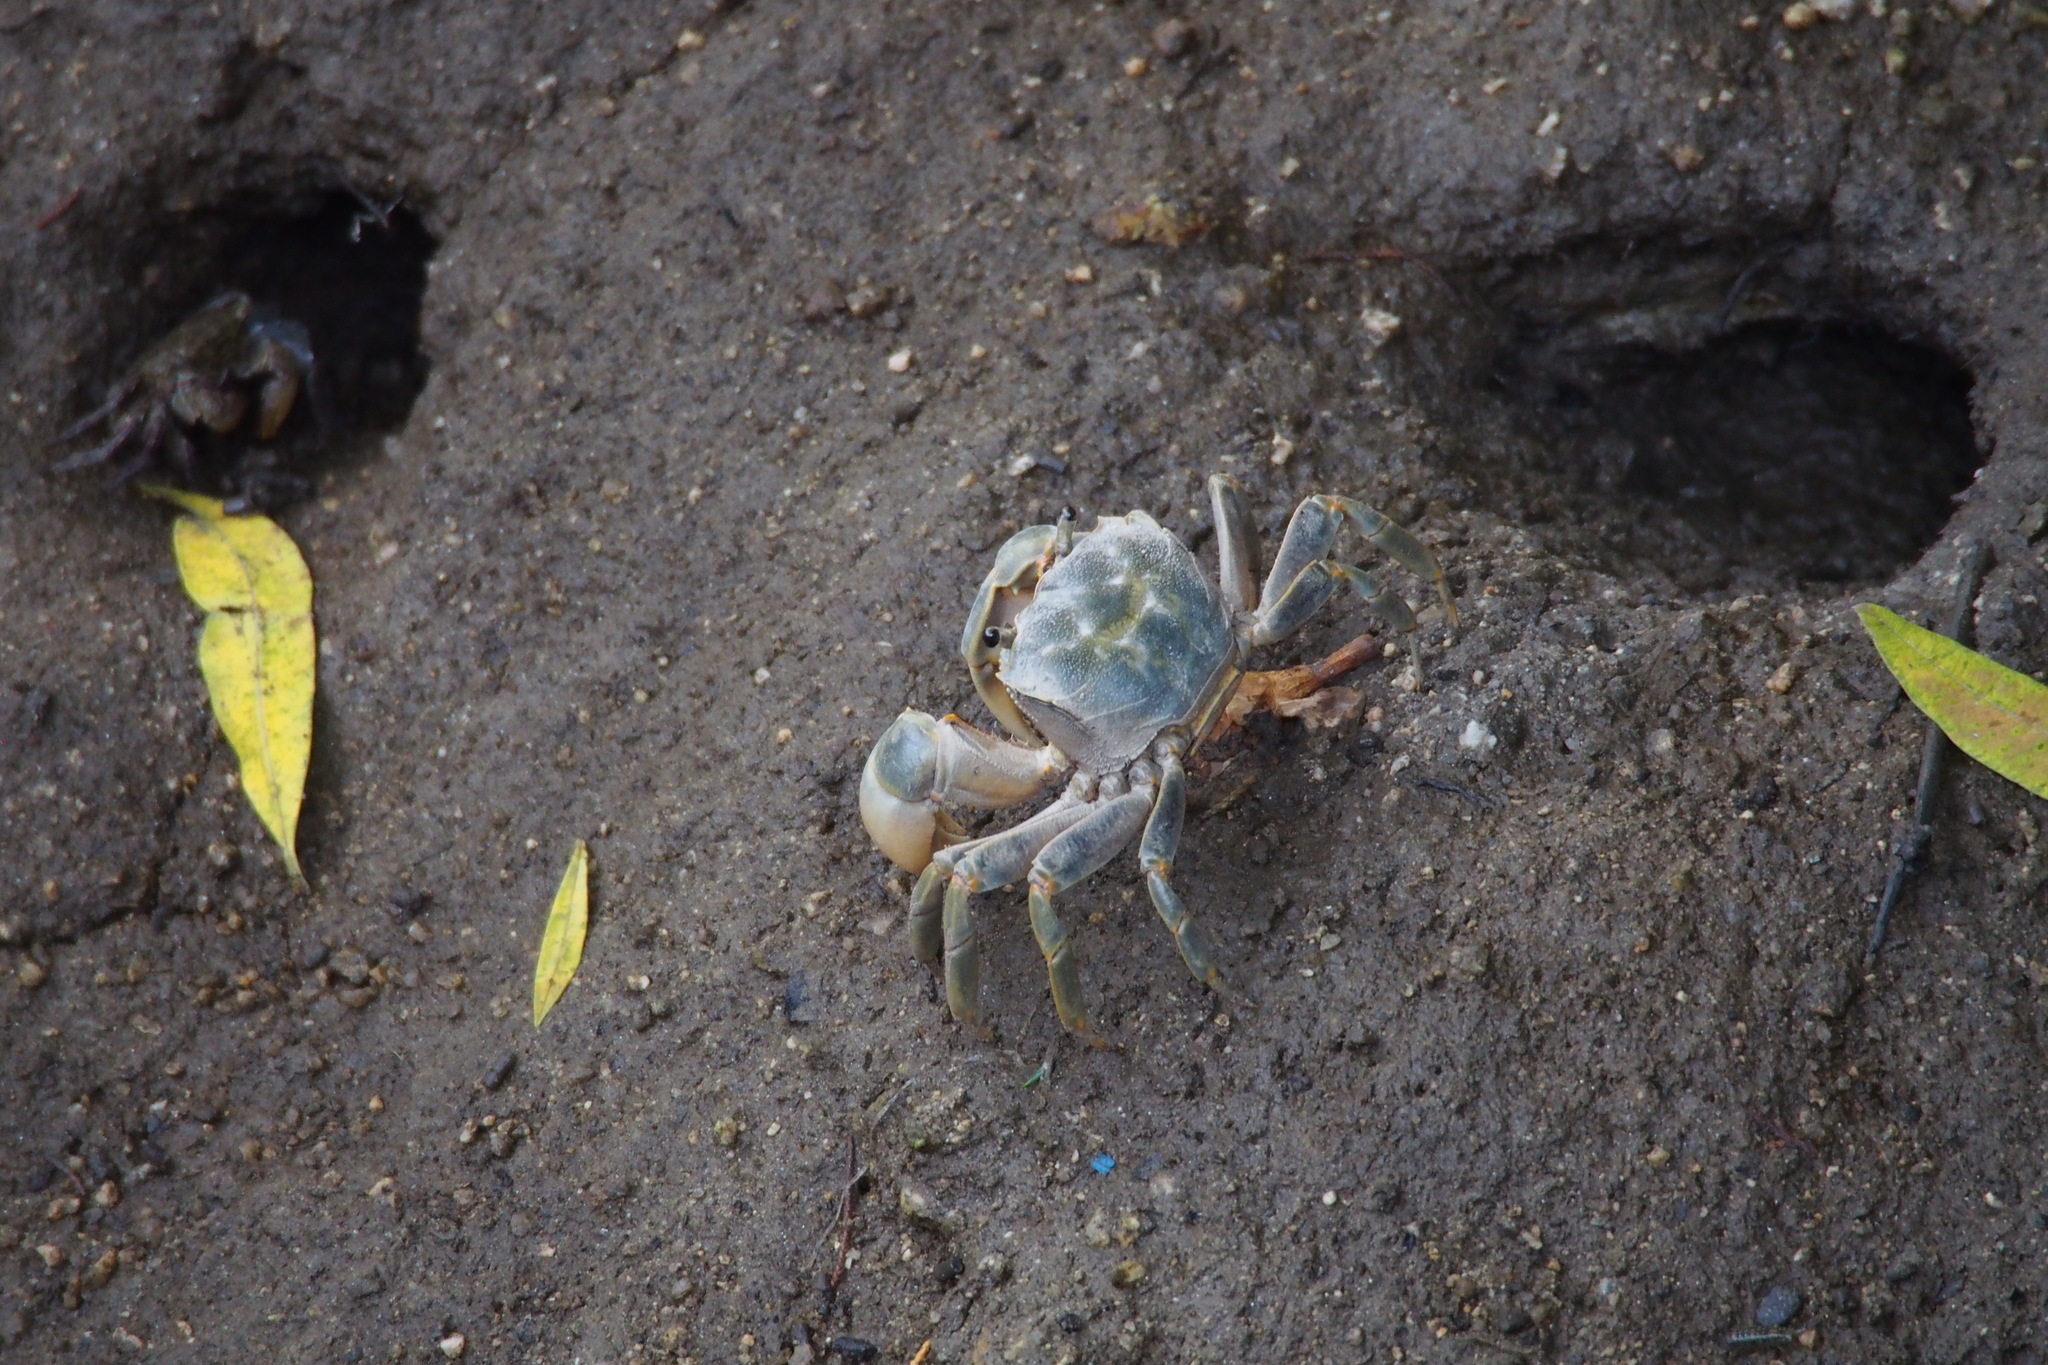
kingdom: Animalia
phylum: Arthropoda
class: Malacostraca
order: Decapoda
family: Varunidae
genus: Helice
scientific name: Helice tridens
